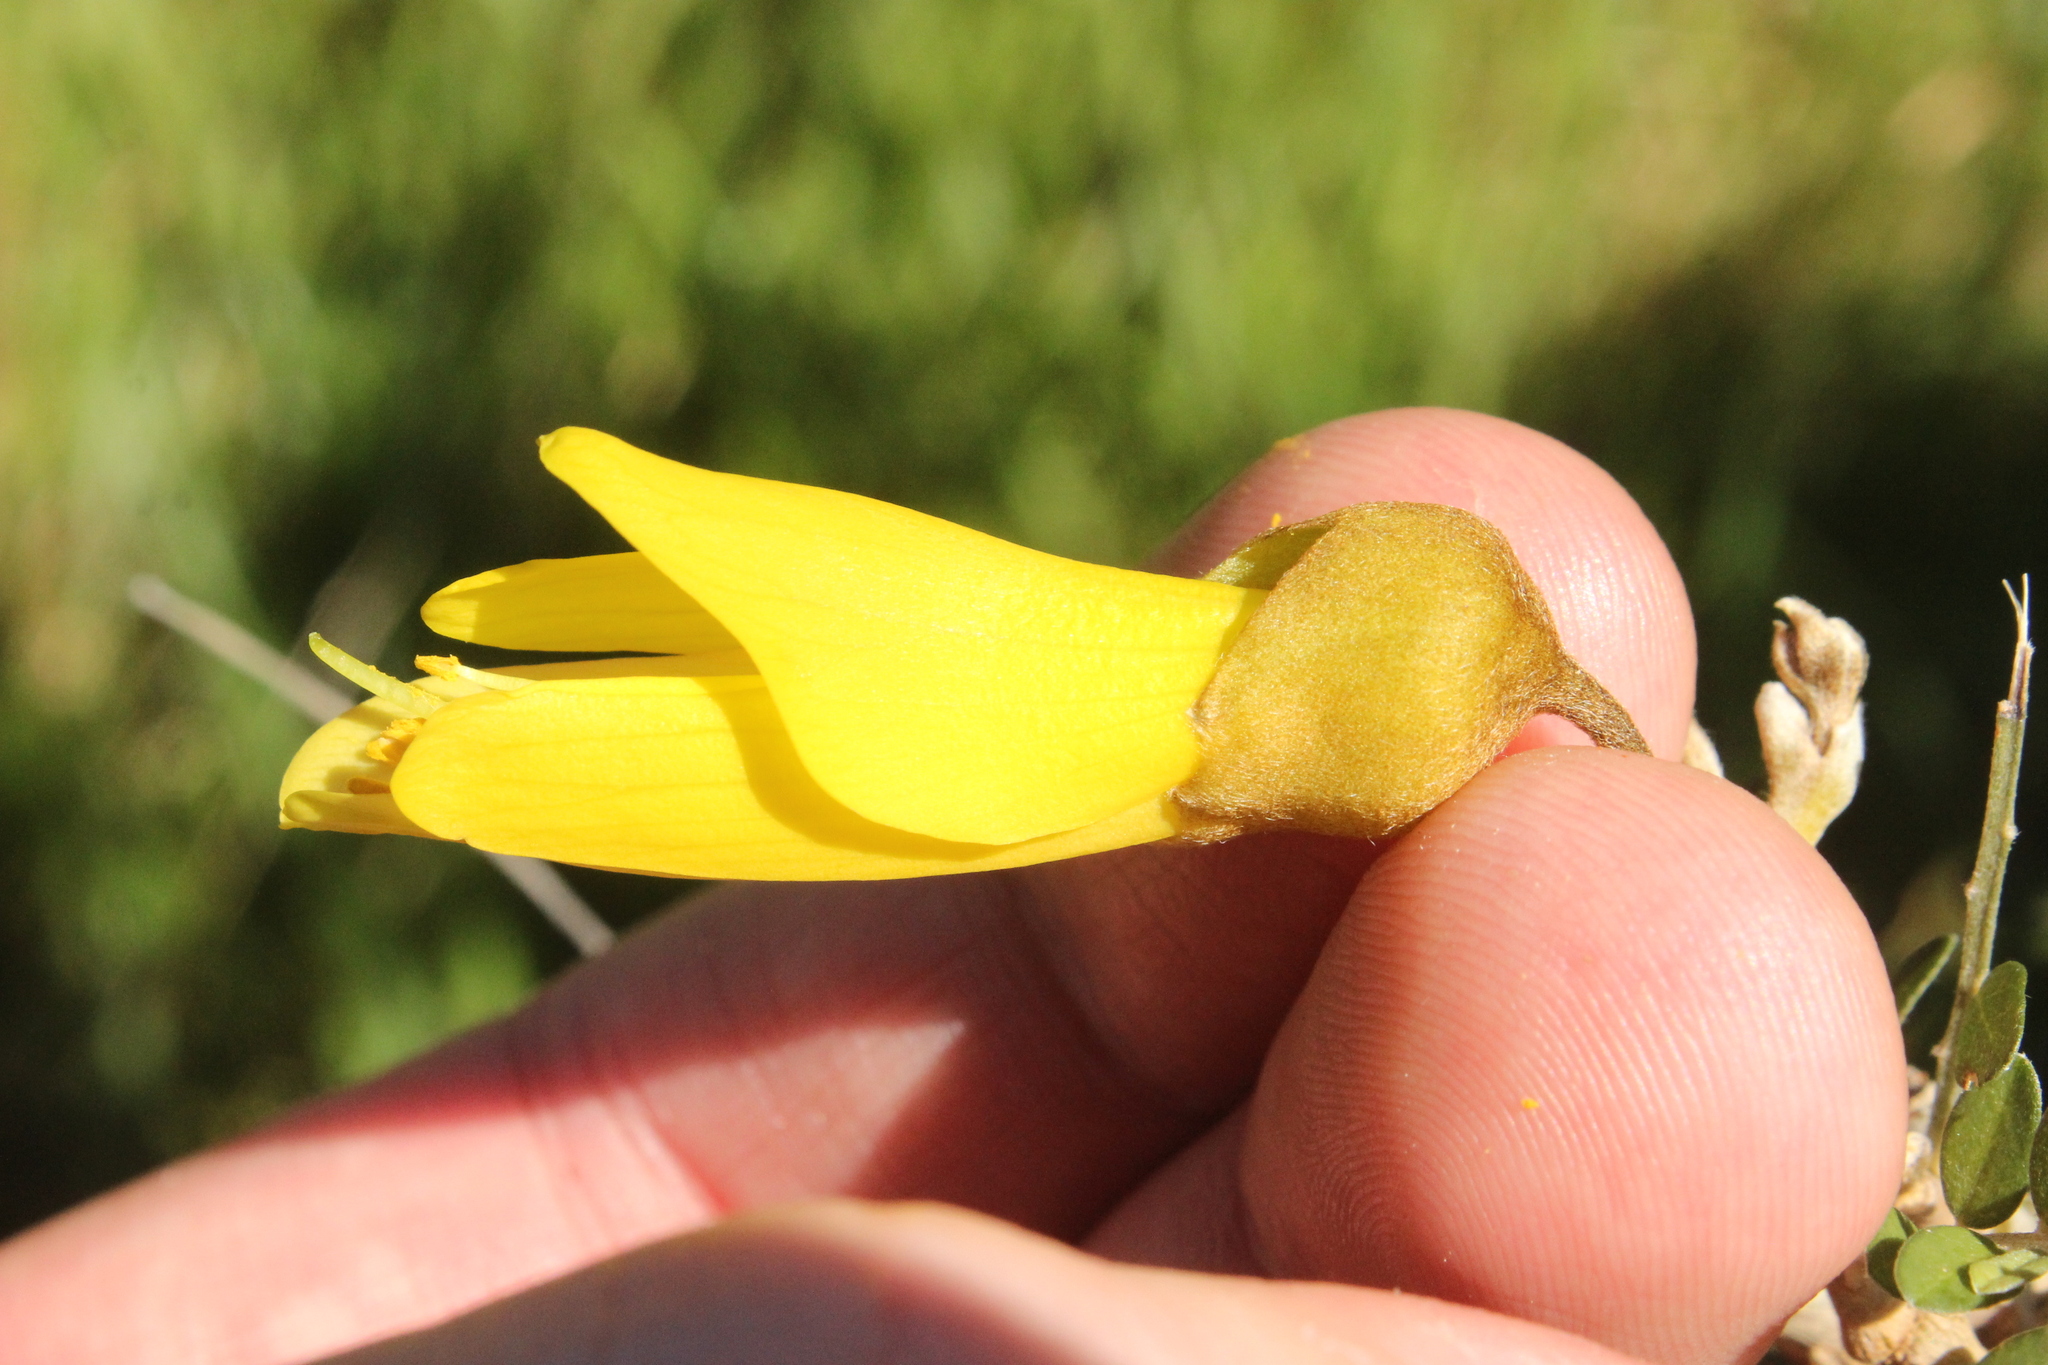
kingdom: Plantae
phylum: Tracheophyta
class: Magnoliopsida
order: Fabales
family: Fabaceae
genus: Sophora
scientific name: Sophora molloyi
